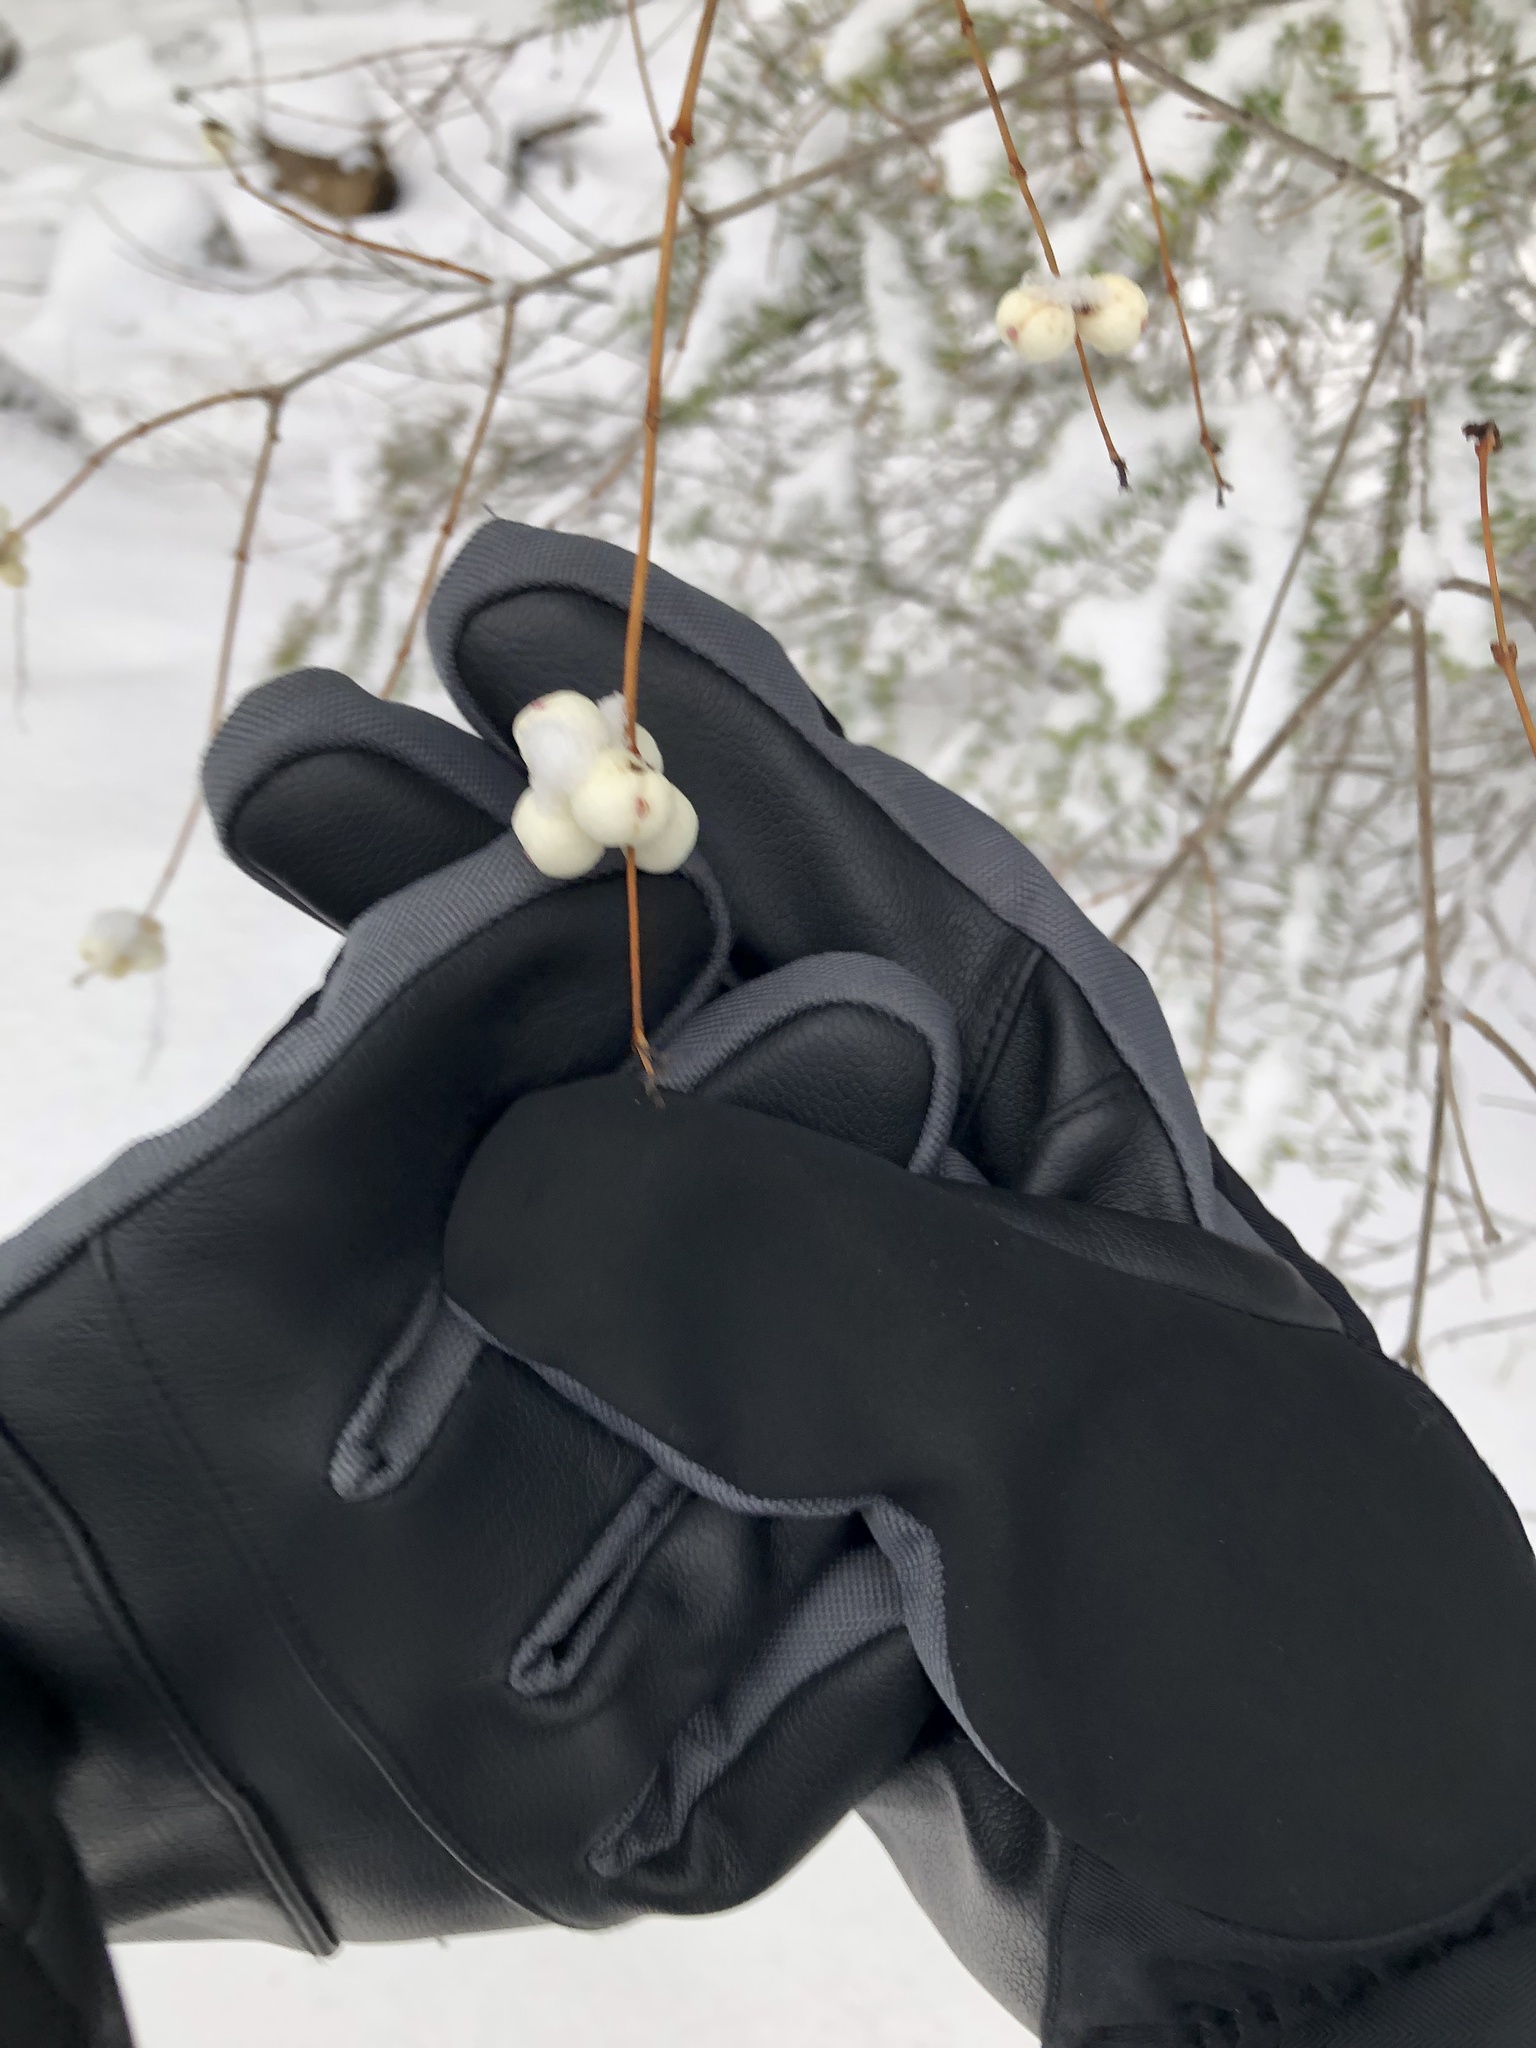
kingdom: Plantae
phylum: Tracheophyta
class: Magnoliopsida
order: Dipsacales
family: Caprifoliaceae
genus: Symphoricarpos
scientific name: Symphoricarpos albus
